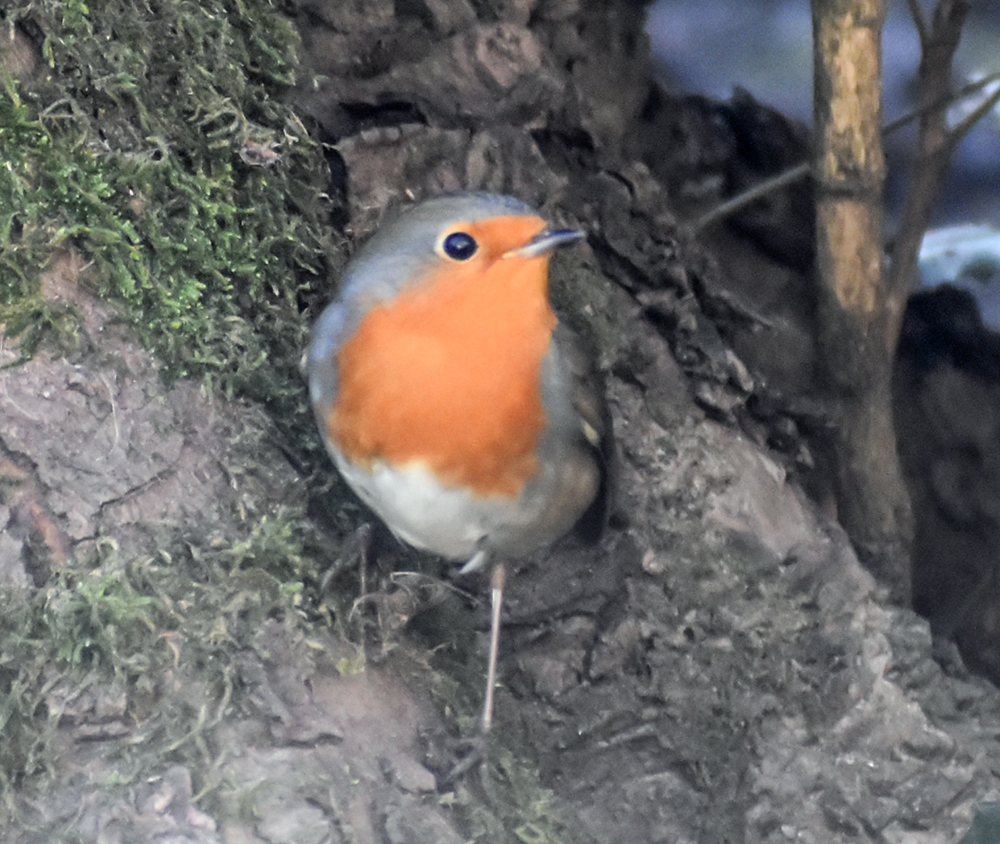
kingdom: Animalia
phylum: Chordata
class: Aves
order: Passeriformes
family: Muscicapidae
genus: Erithacus
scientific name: Erithacus rubecula
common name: European robin
